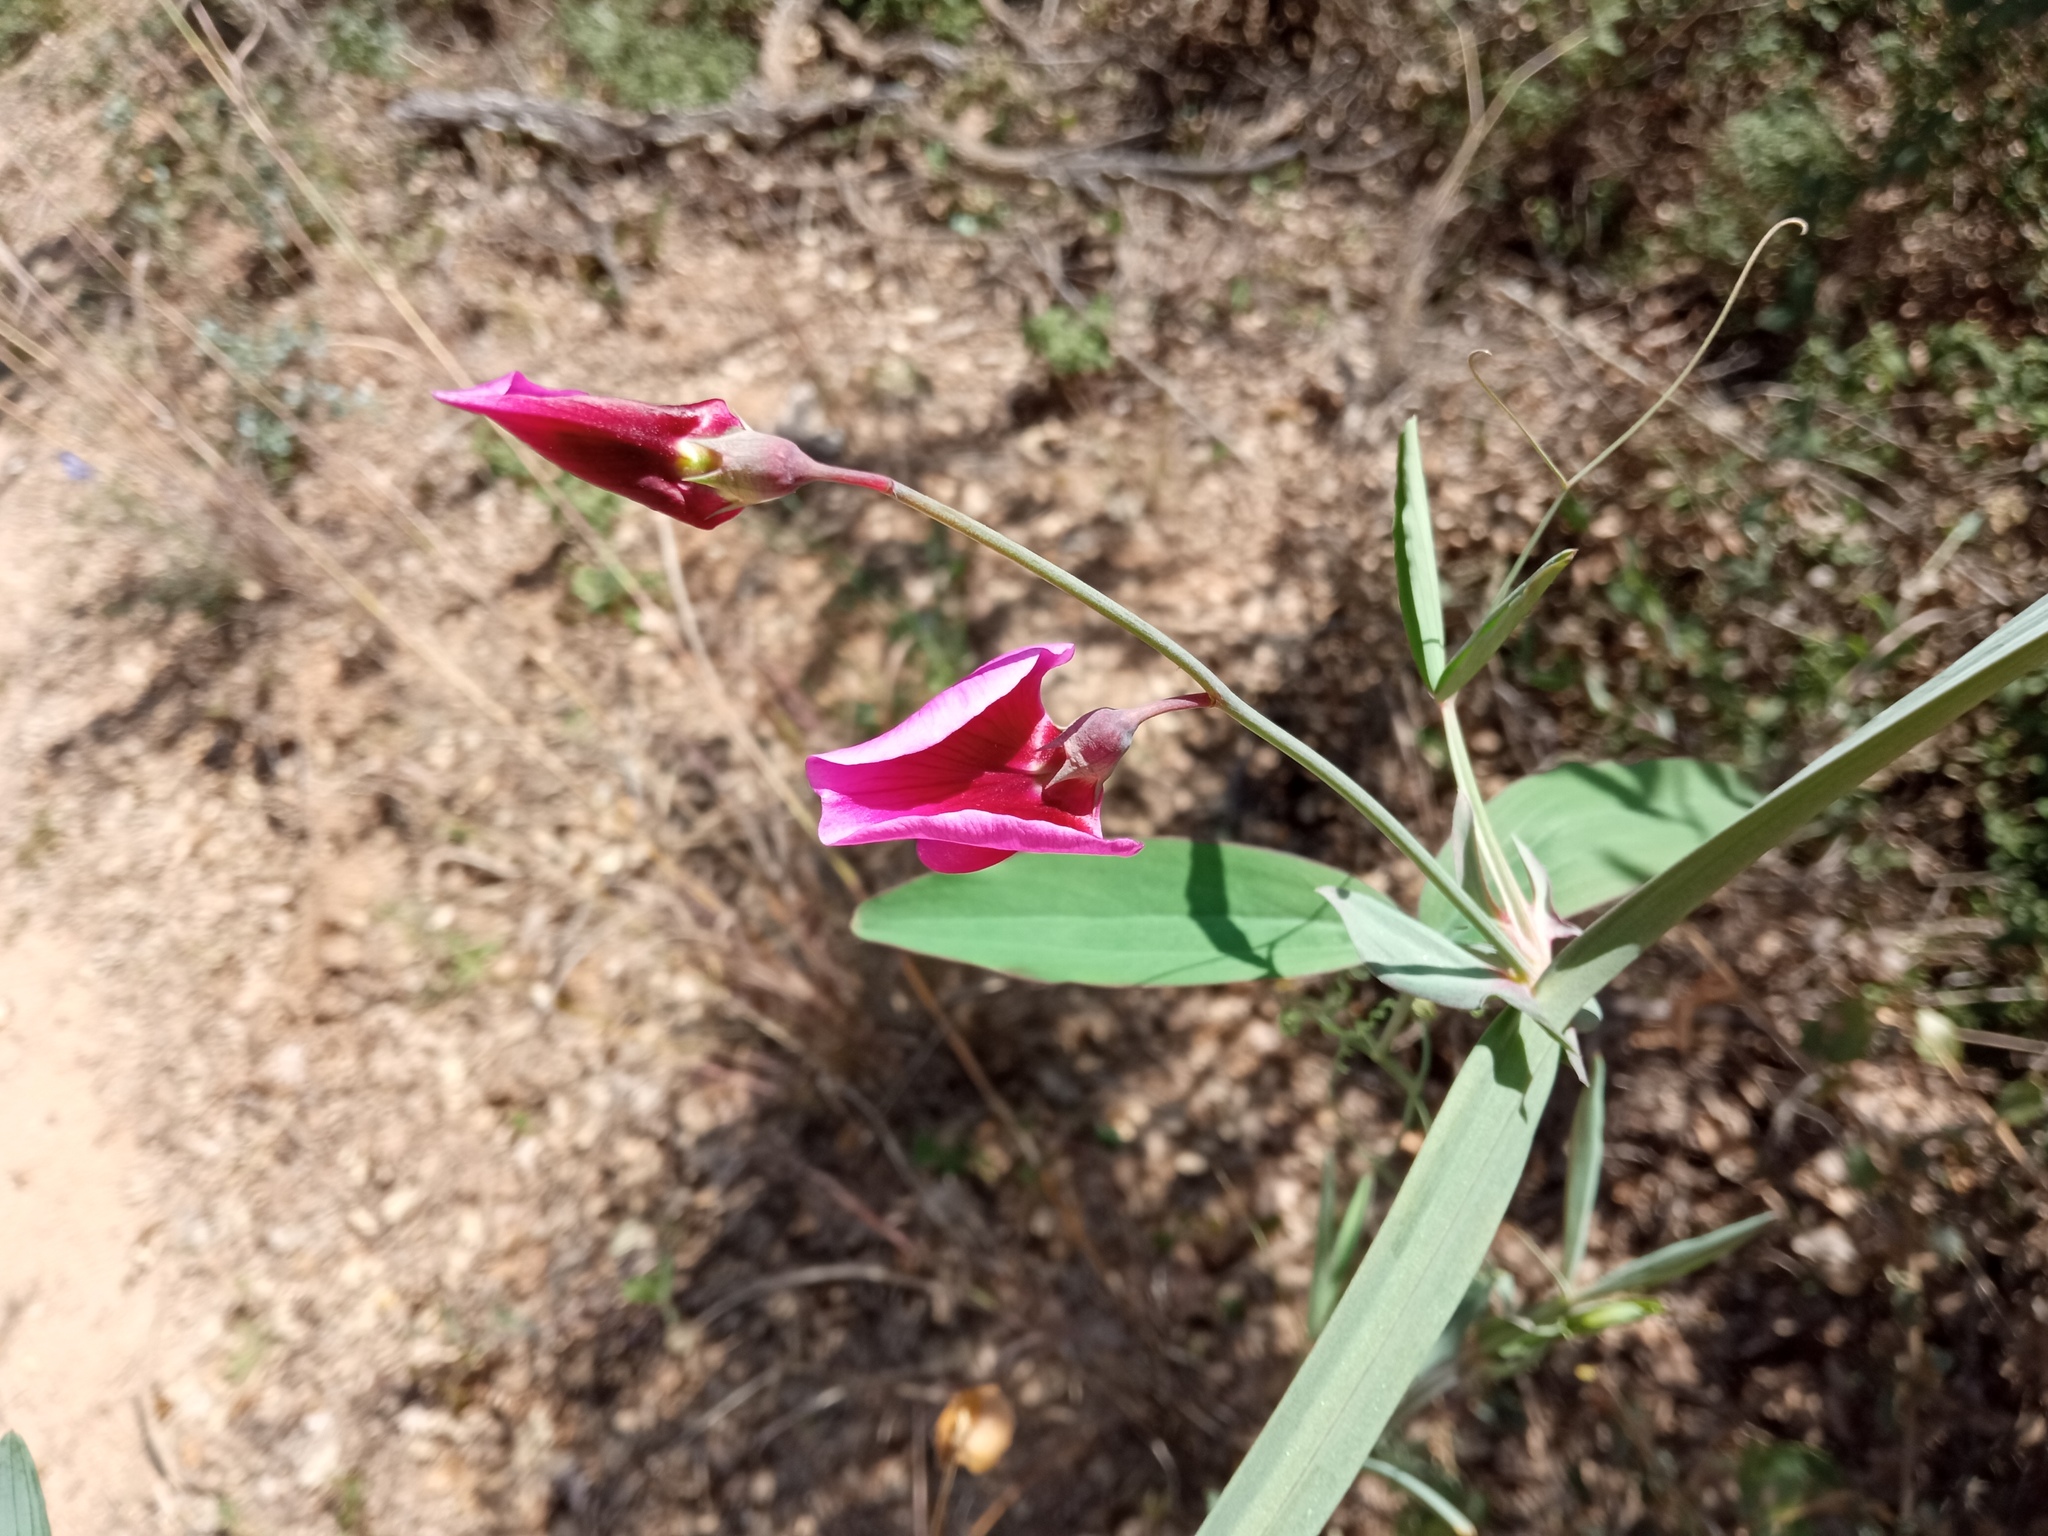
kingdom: Plantae
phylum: Tracheophyta
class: Magnoliopsida
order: Fabales
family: Fabaceae
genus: Lathyrus
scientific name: Lathyrus tingitanus
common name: Tangier pea
